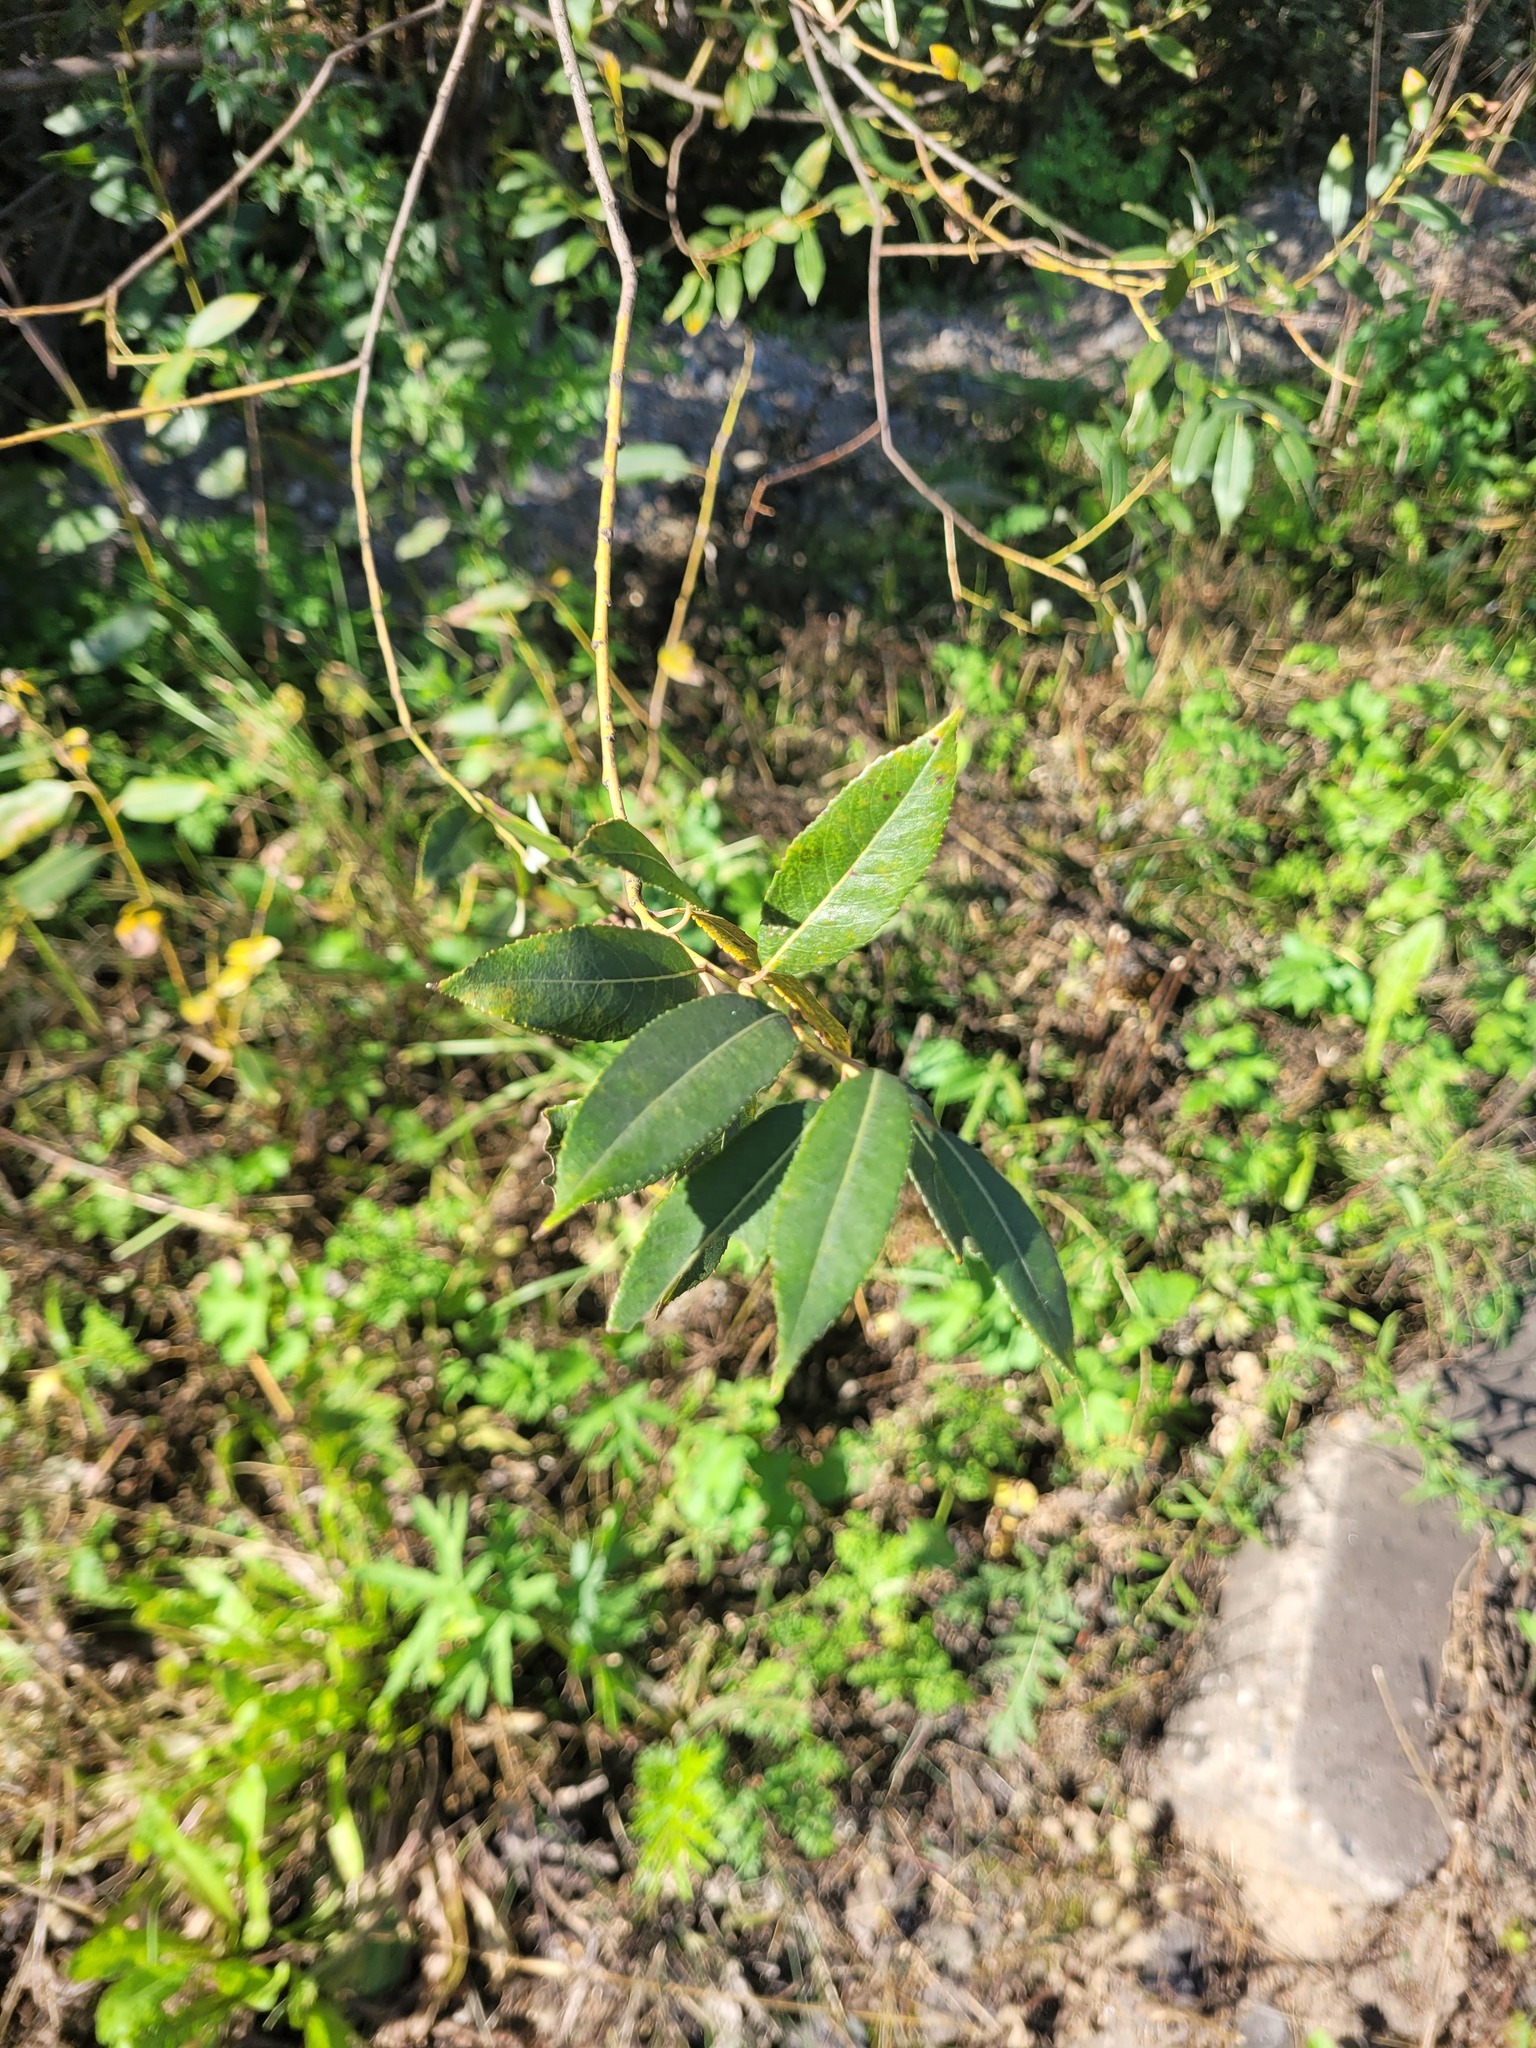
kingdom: Plantae
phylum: Tracheophyta
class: Magnoliopsida
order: Malpighiales
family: Salicaceae
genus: Salix
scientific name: Salix triandra
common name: Almond willow
